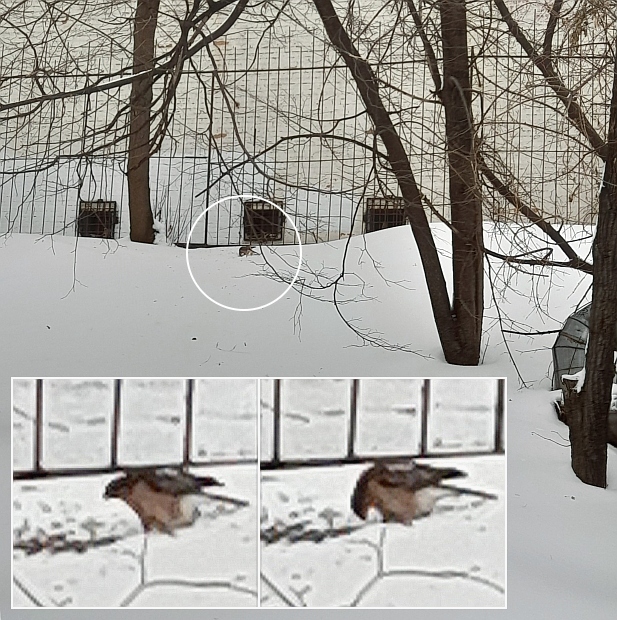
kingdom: Animalia
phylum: Chordata
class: Aves
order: Accipitriformes
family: Accipitridae
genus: Accipiter
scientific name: Accipiter nisus
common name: Eurasian sparrowhawk
